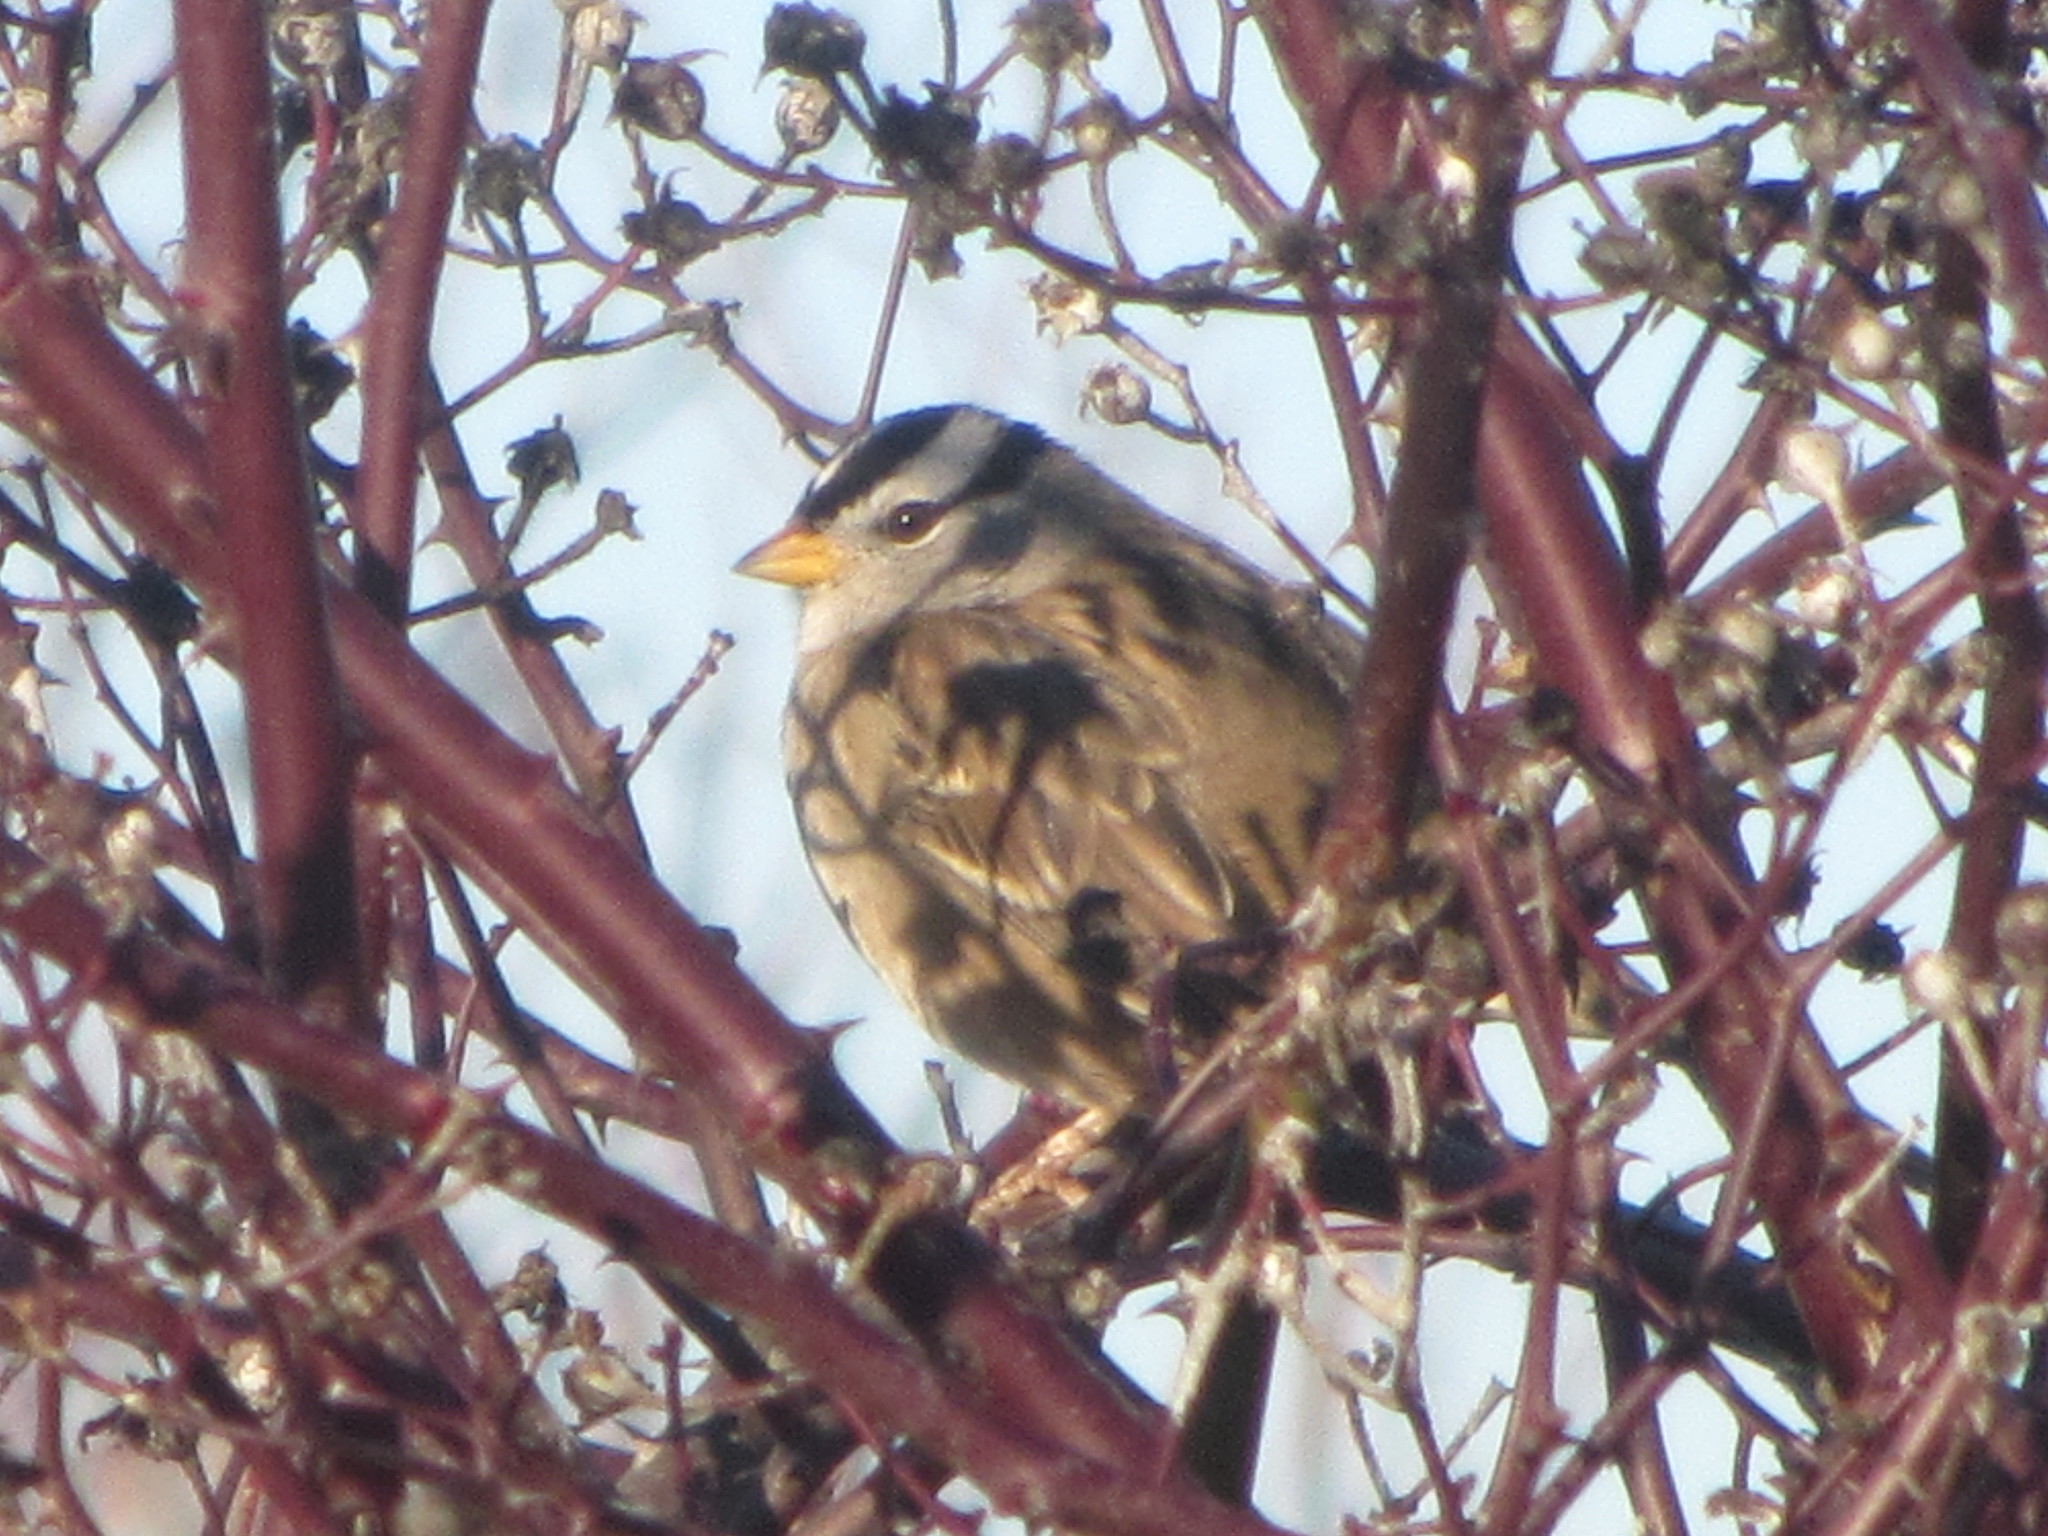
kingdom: Animalia
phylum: Chordata
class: Aves
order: Passeriformes
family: Passerellidae
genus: Zonotrichia
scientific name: Zonotrichia leucophrys
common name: White-crowned sparrow
